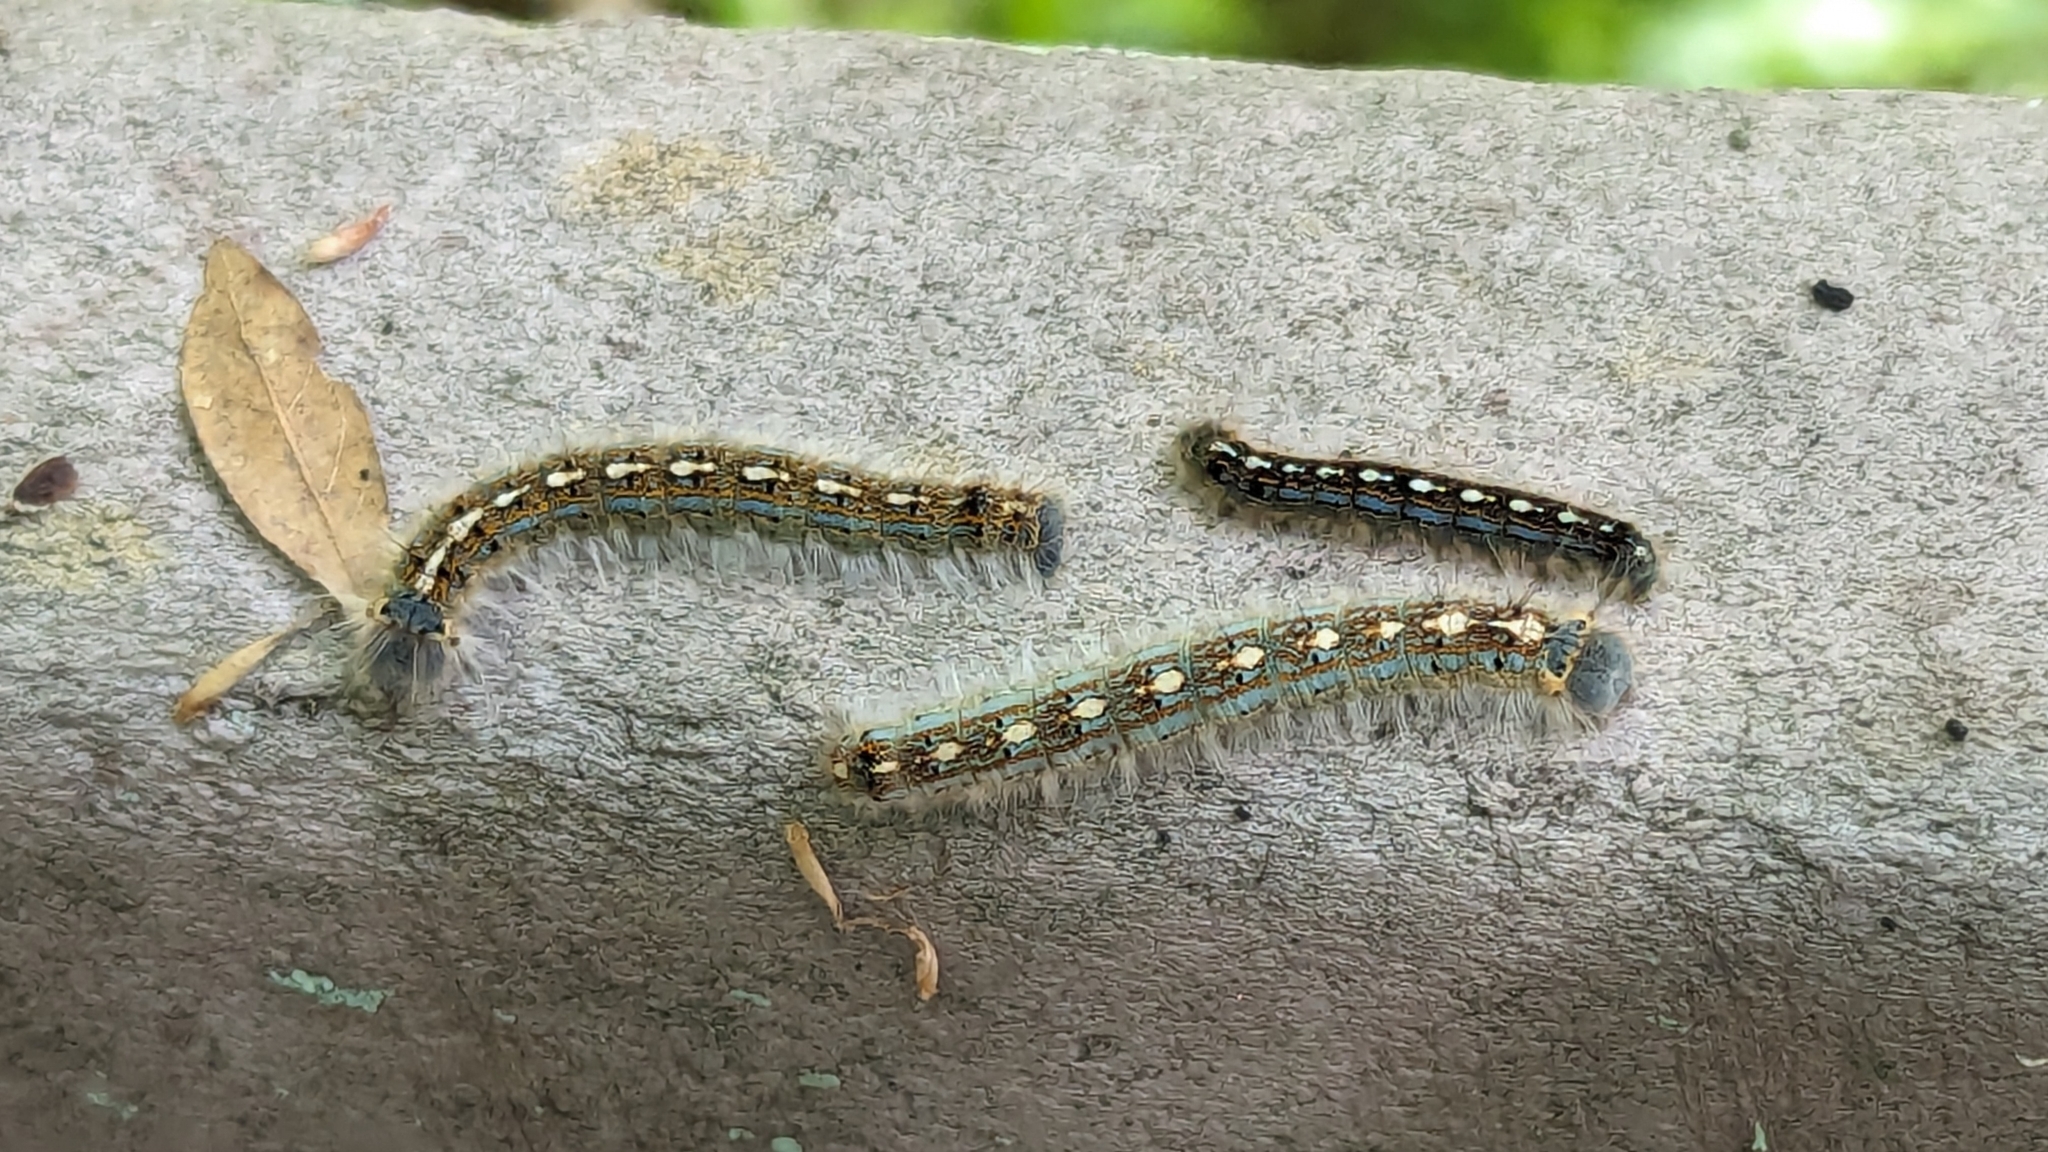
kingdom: Animalia
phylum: Arthropoda
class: Insecta
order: Lepidoptera
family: Lasiocampidae
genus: Malacosoma
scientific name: Malacosoma disstria
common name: Forest tent caterpillar
